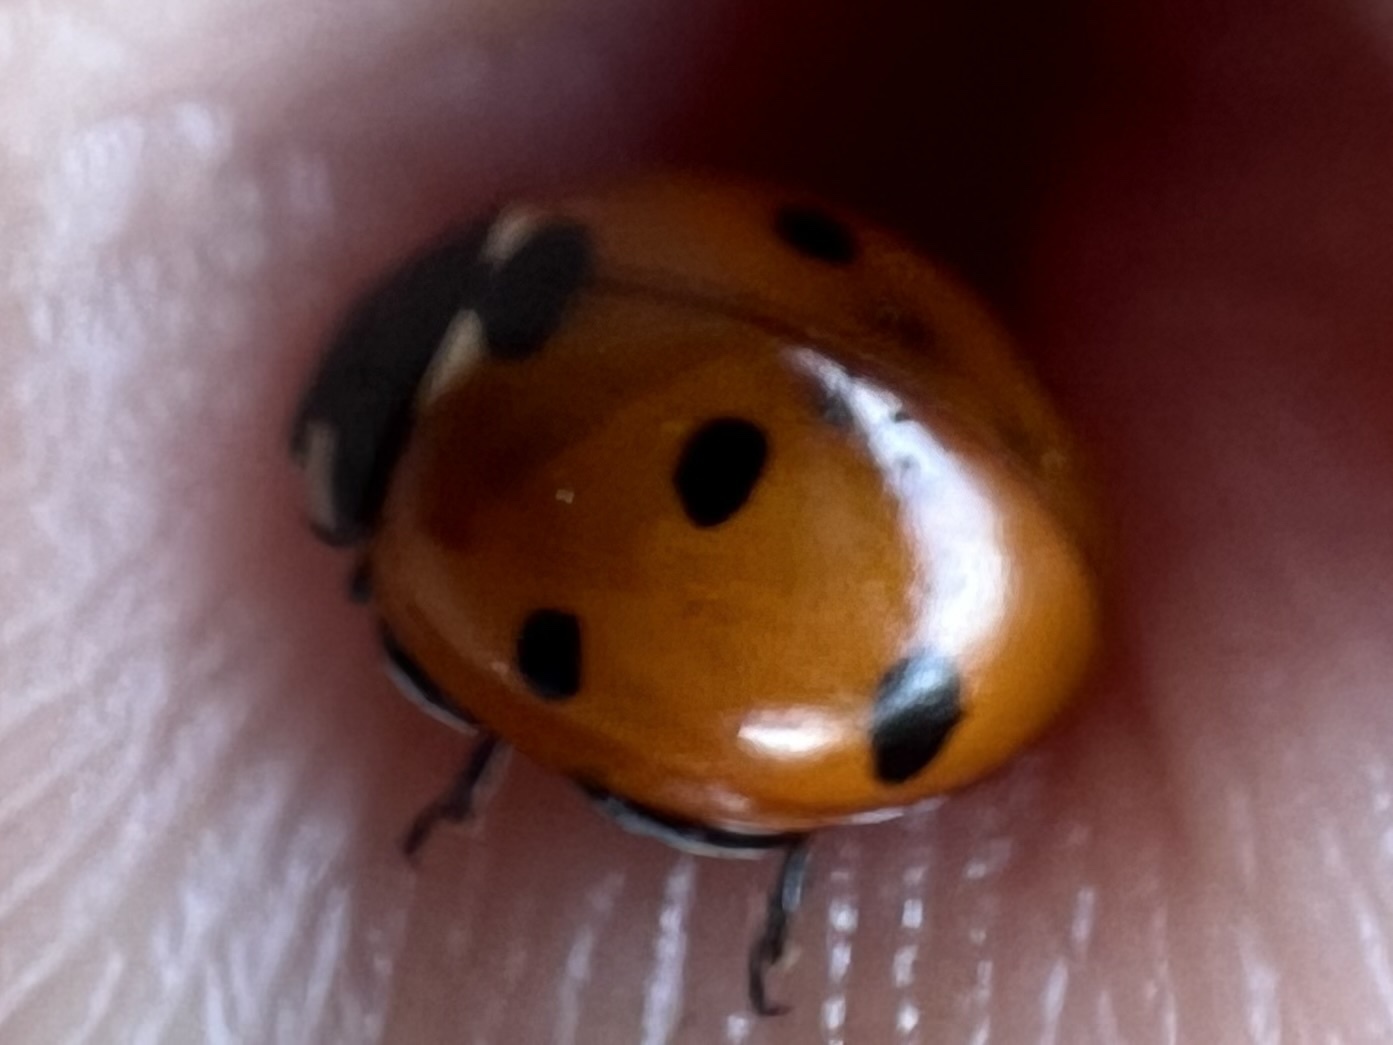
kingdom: Animalia
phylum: Arthropoda
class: Insecta
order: Coleoptera
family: Coccinellidae
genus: Coccinella
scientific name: Coccinella septempunctata
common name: Sevenspotted lady beetle
